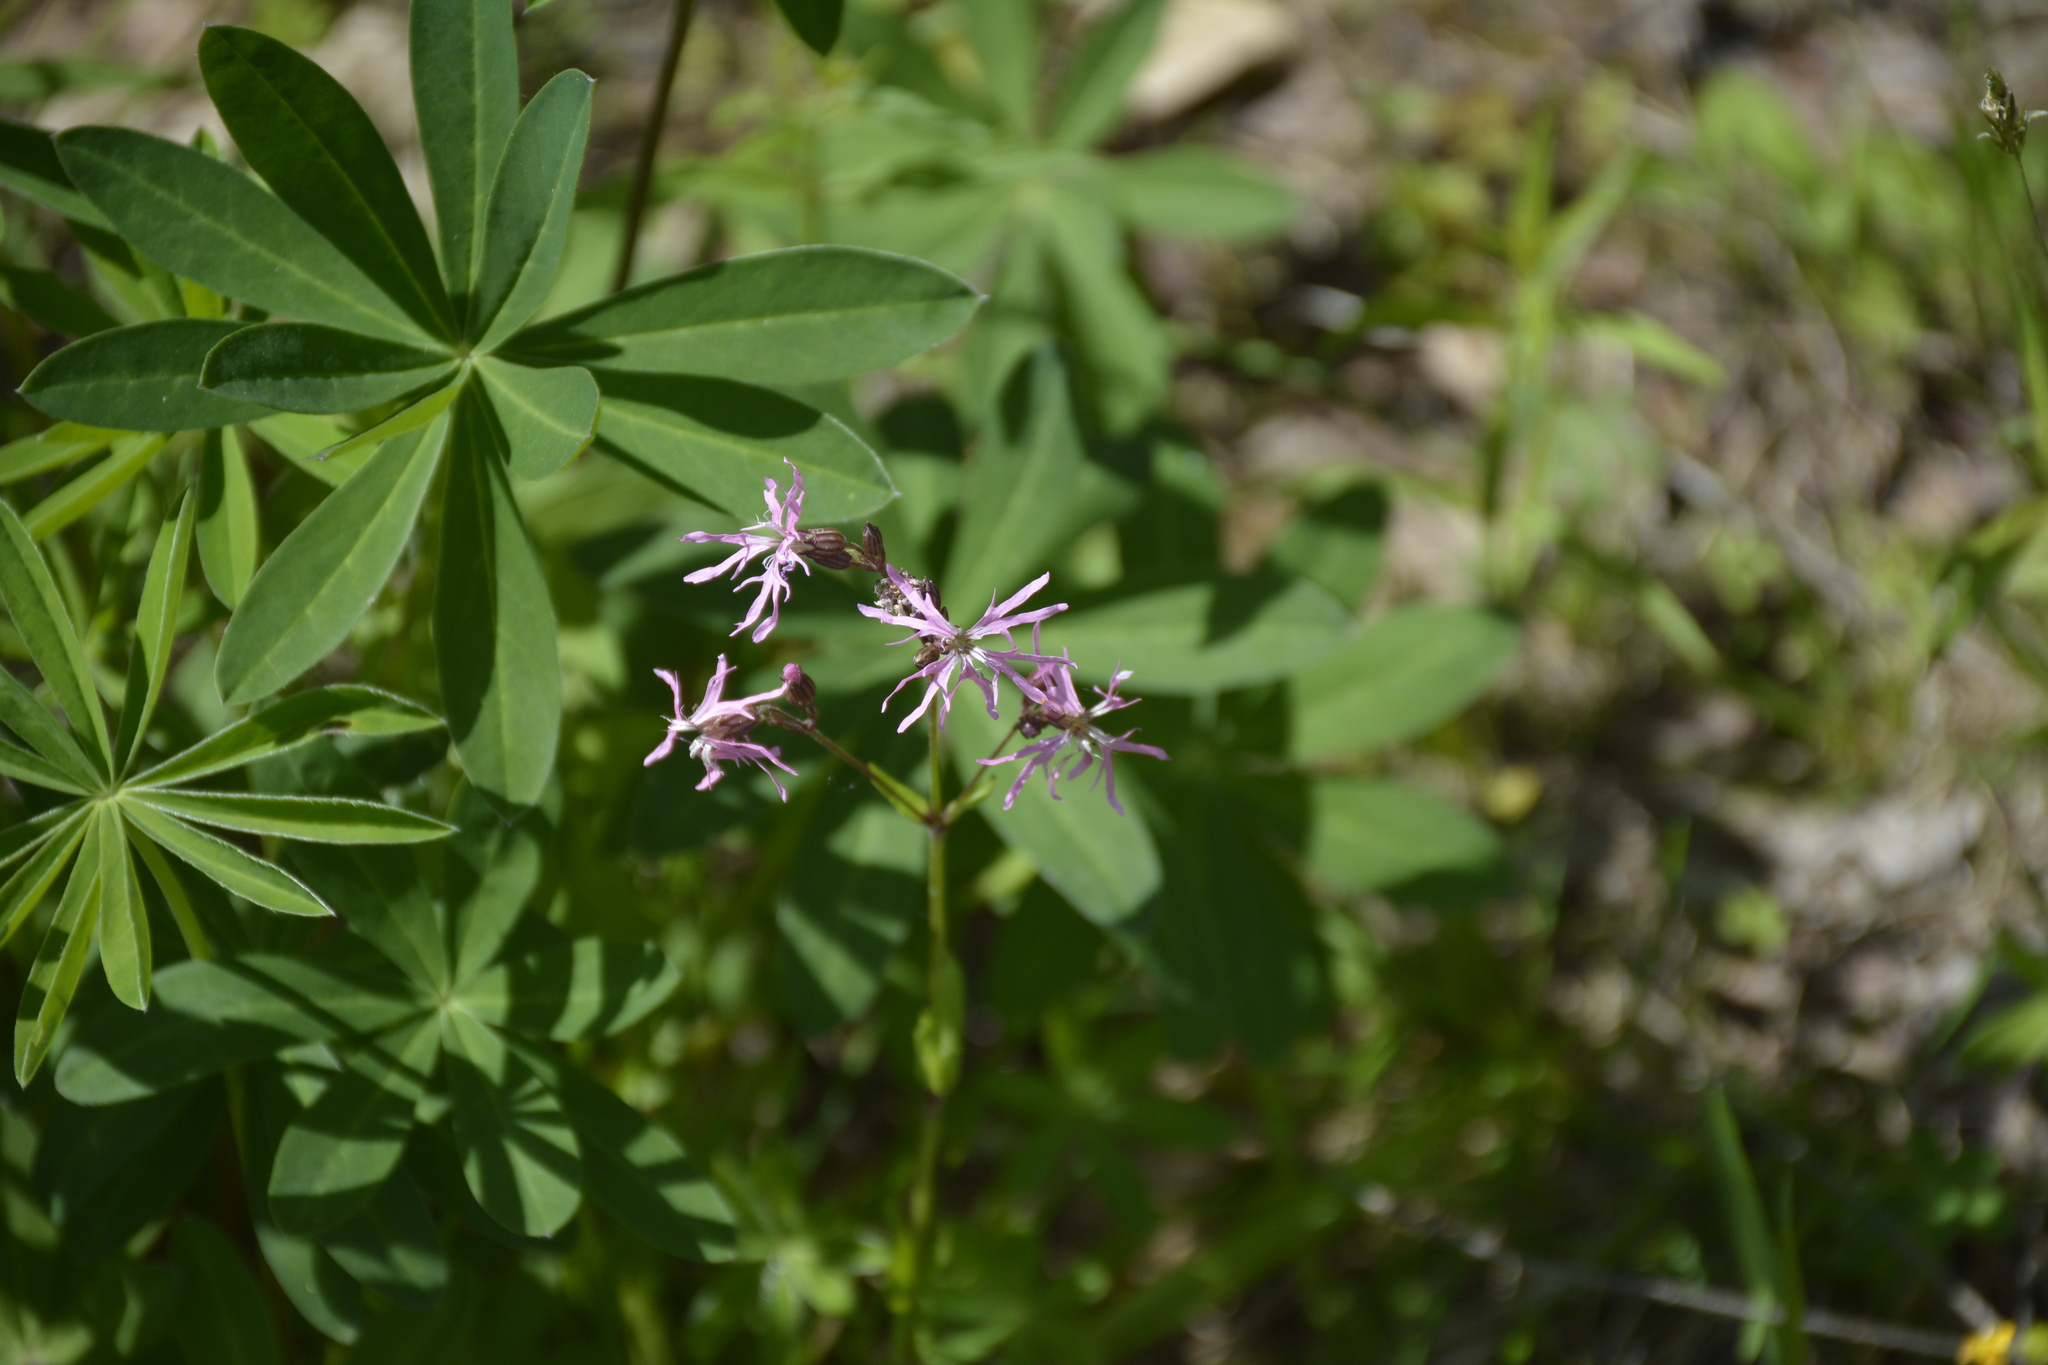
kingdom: Plantae
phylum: Tracheophyta
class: Magnoliopsida
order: Caryophyllales
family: Caryophyllaceae
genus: Silene
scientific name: Silene flos-cuculi
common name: Ragged-robin
